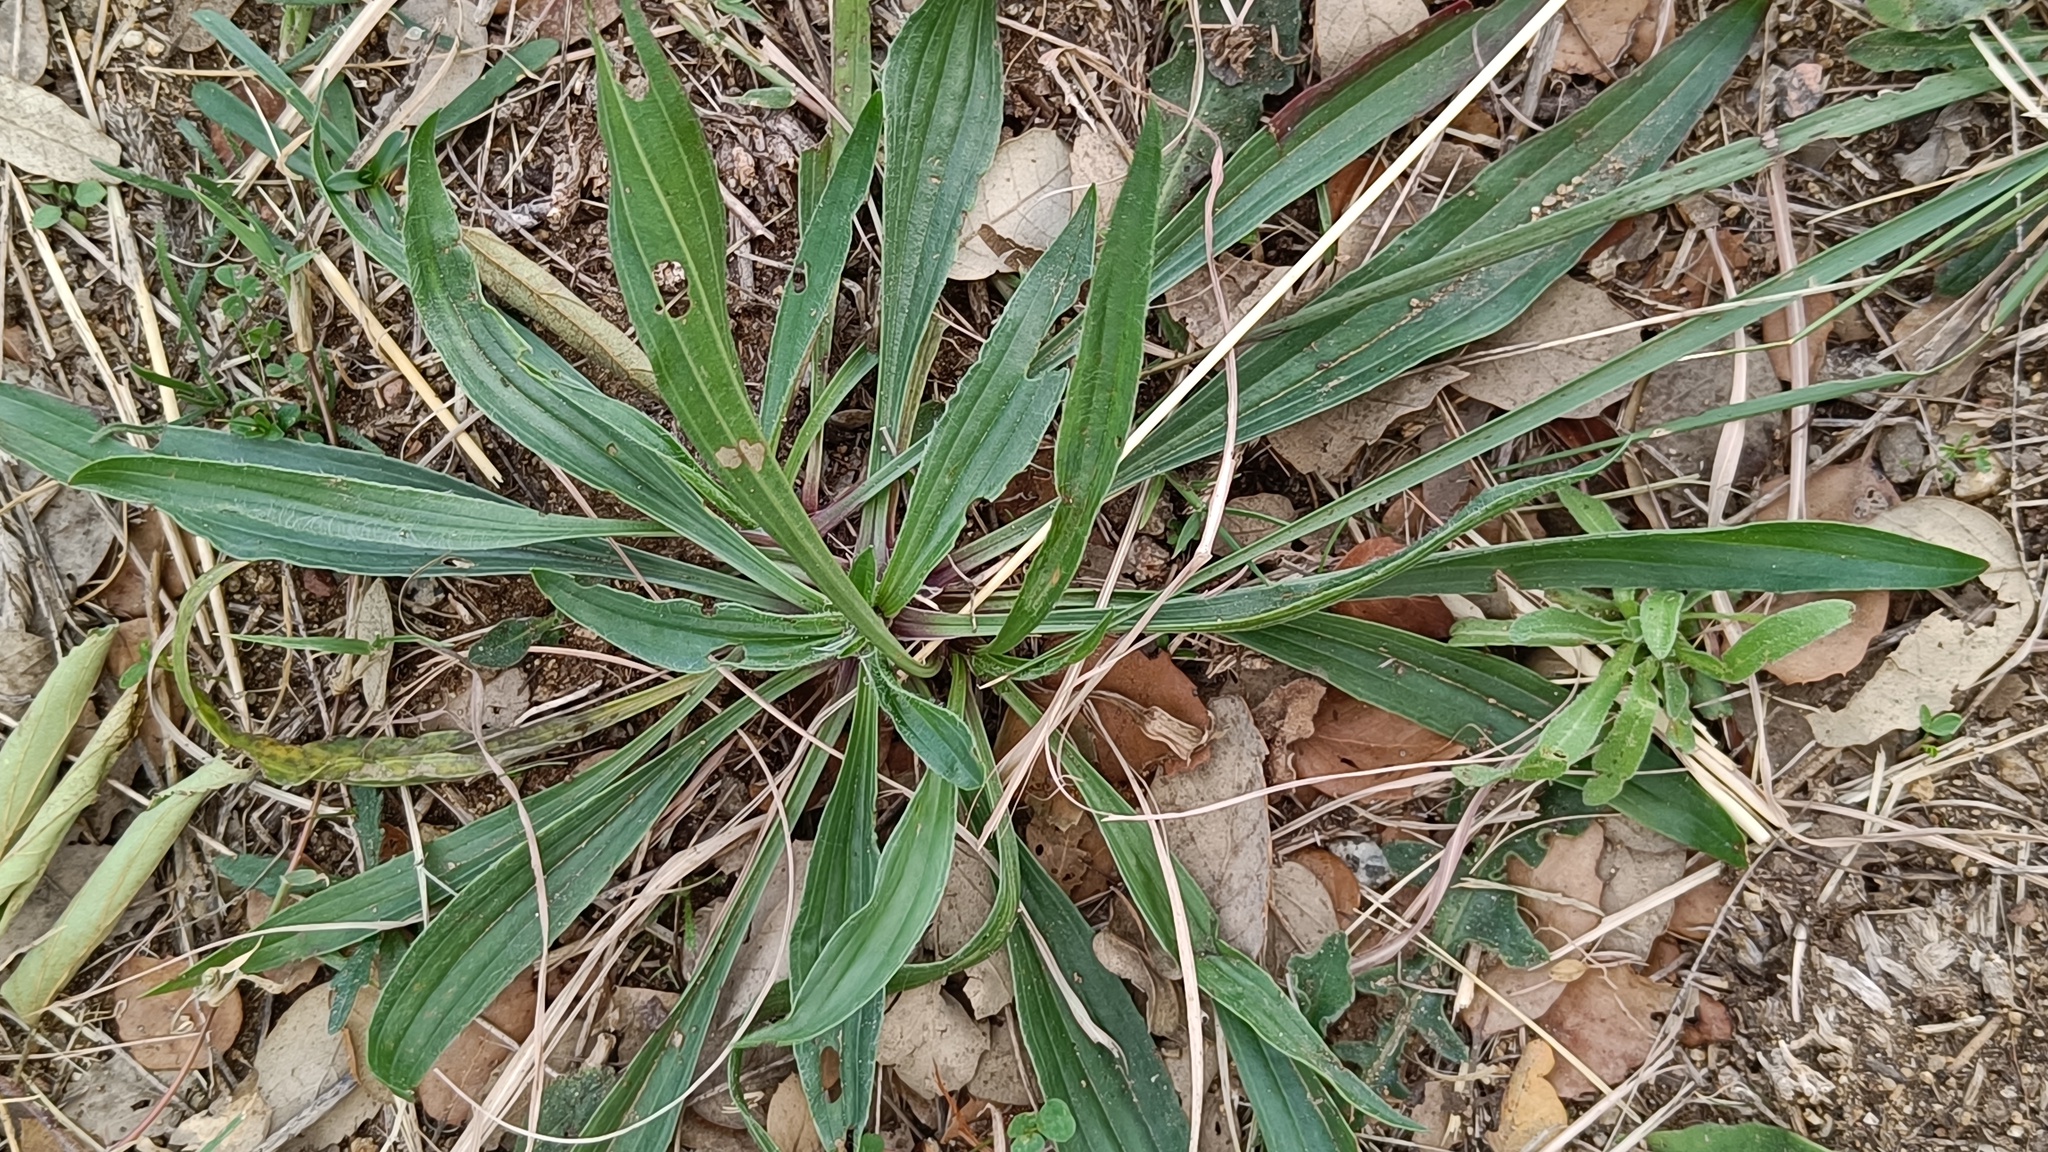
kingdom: Plantae
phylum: Tracheophyta
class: Magnoliopsida
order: Lamiales
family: Plantaginaceae
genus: Plantago
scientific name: Plantago lanceolata
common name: Ribwort plantain
